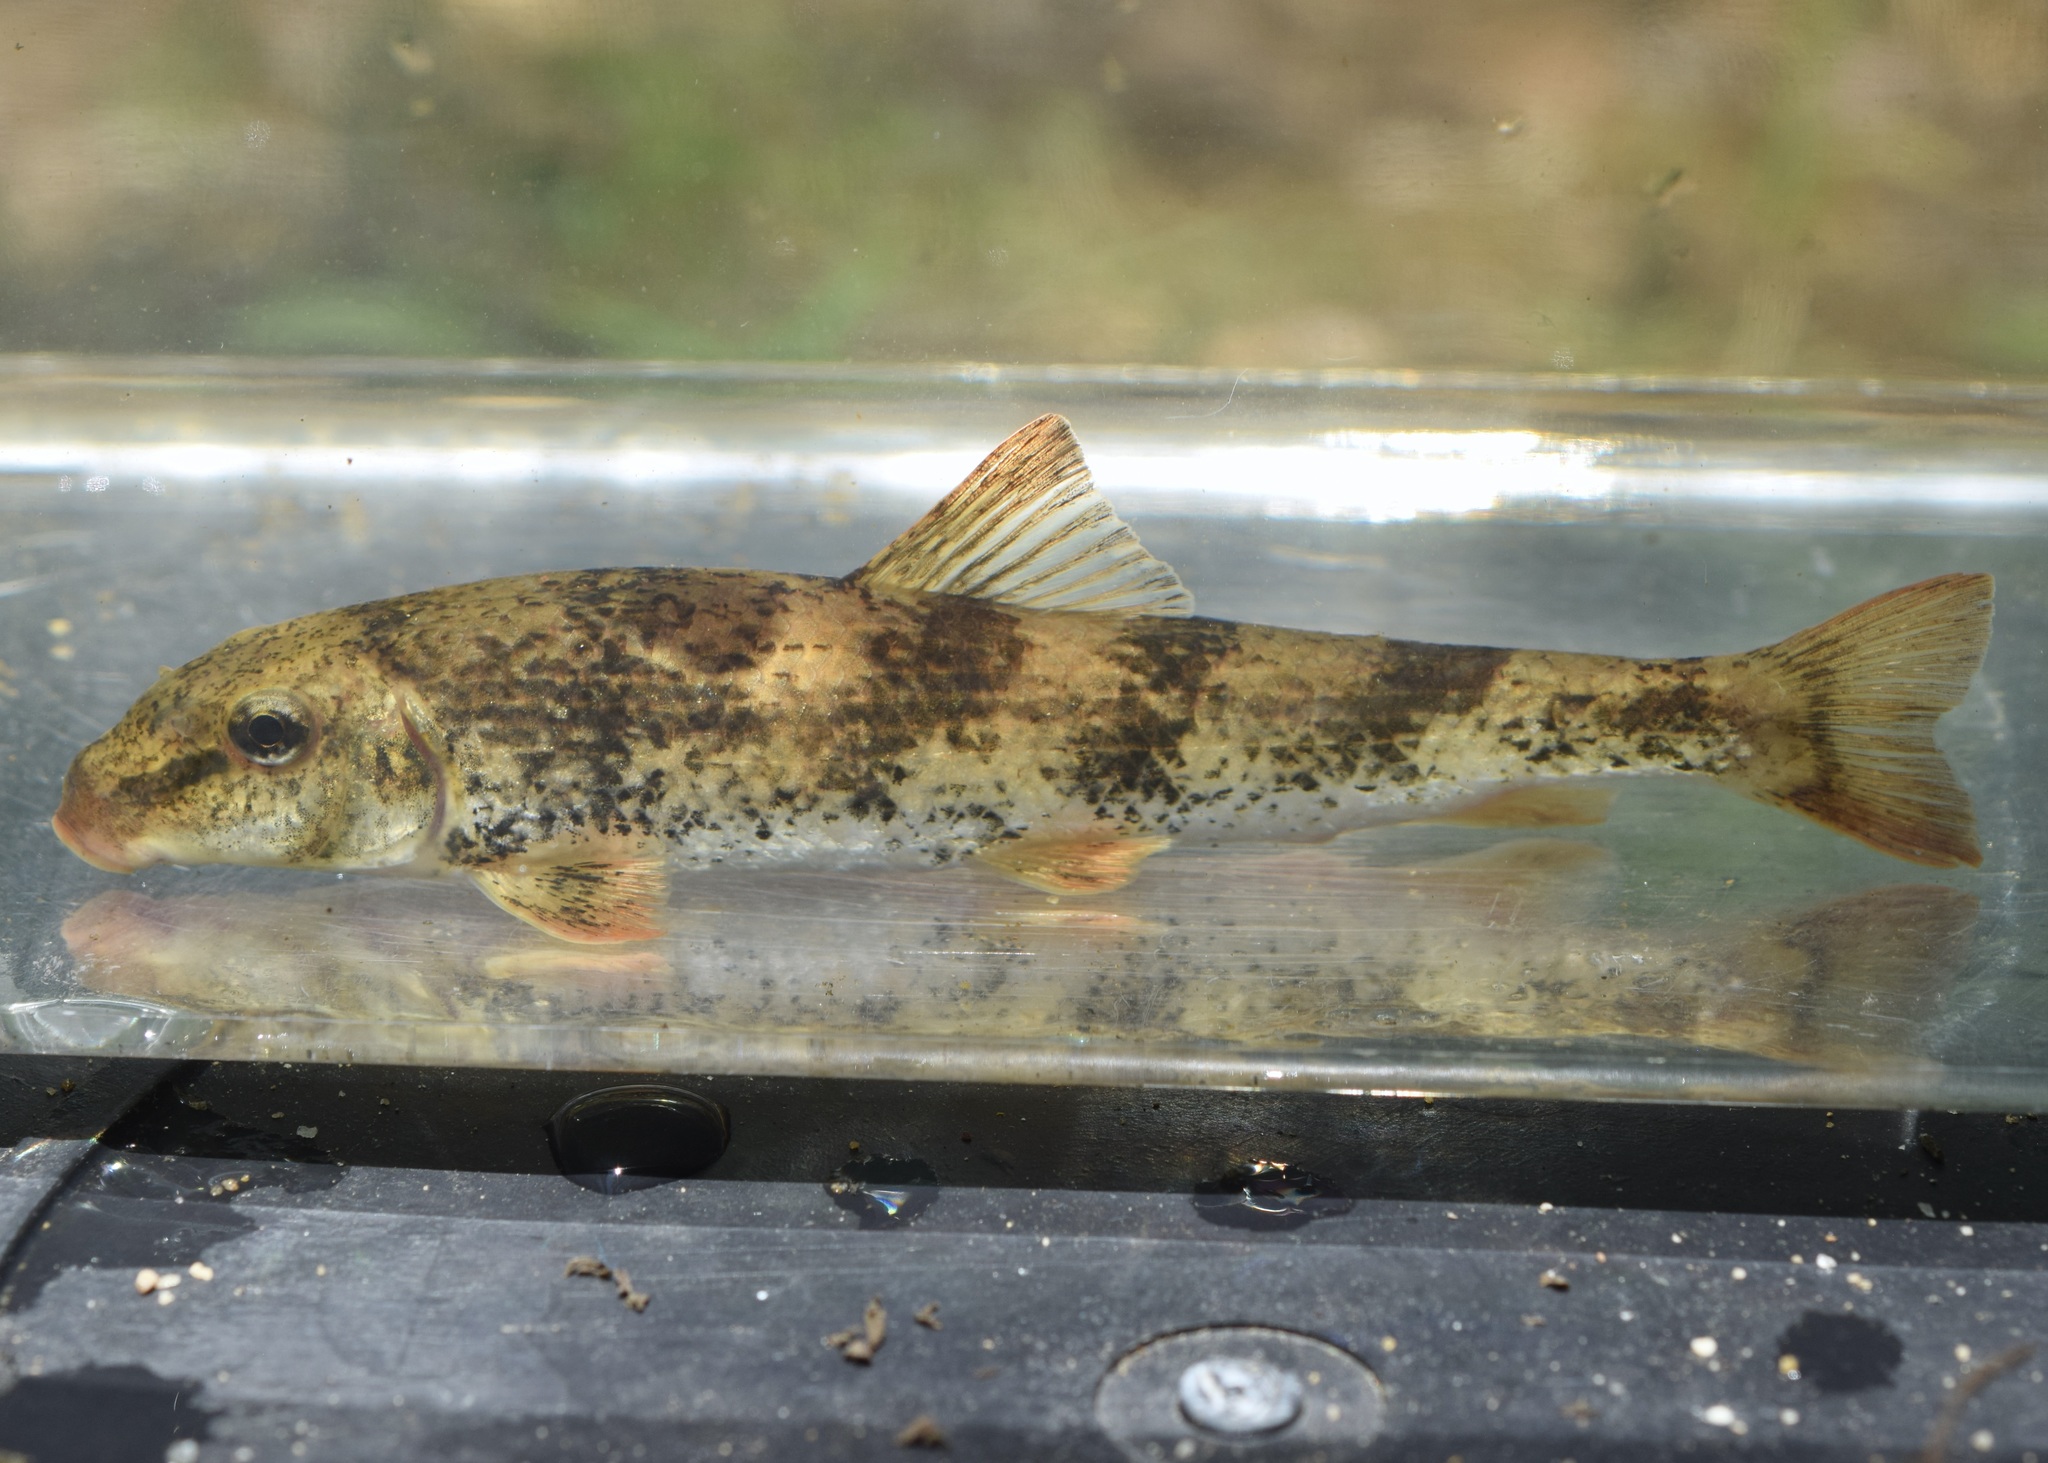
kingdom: Animalia
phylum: Chordata
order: Cypriniformes
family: Catostomidae
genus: Hypentelium
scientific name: Hypentelium etowanum
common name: Alabama hog sucker
